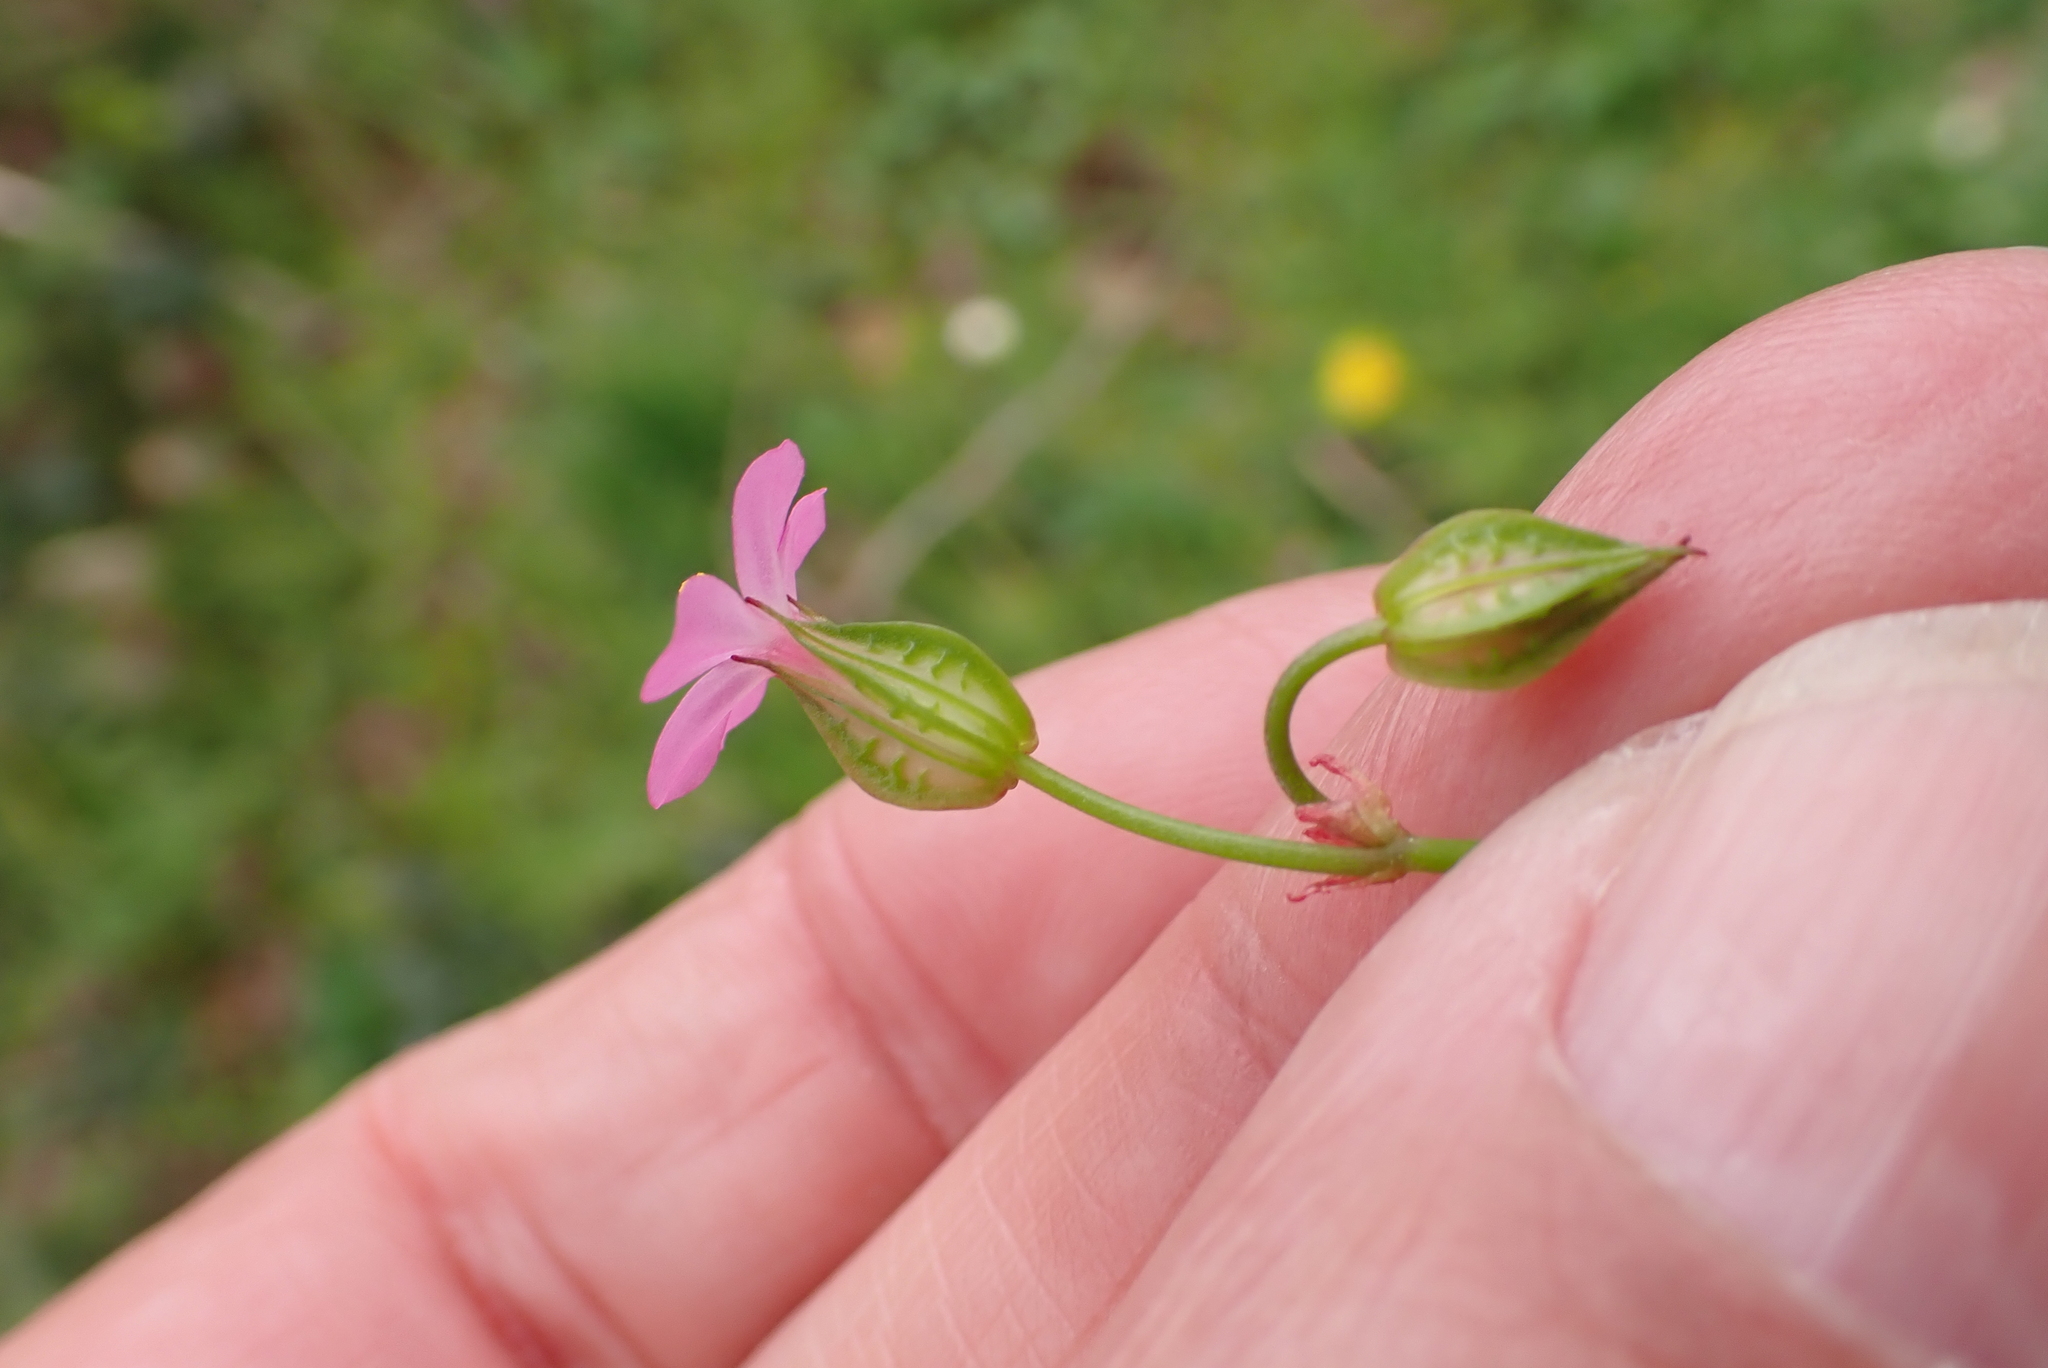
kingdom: Plantae
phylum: Tracheophyta
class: Magnoliopsida
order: Geraniales
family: Geraniaceae
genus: Geranium
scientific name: Geranium lucidum
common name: Shining crane's-bill
